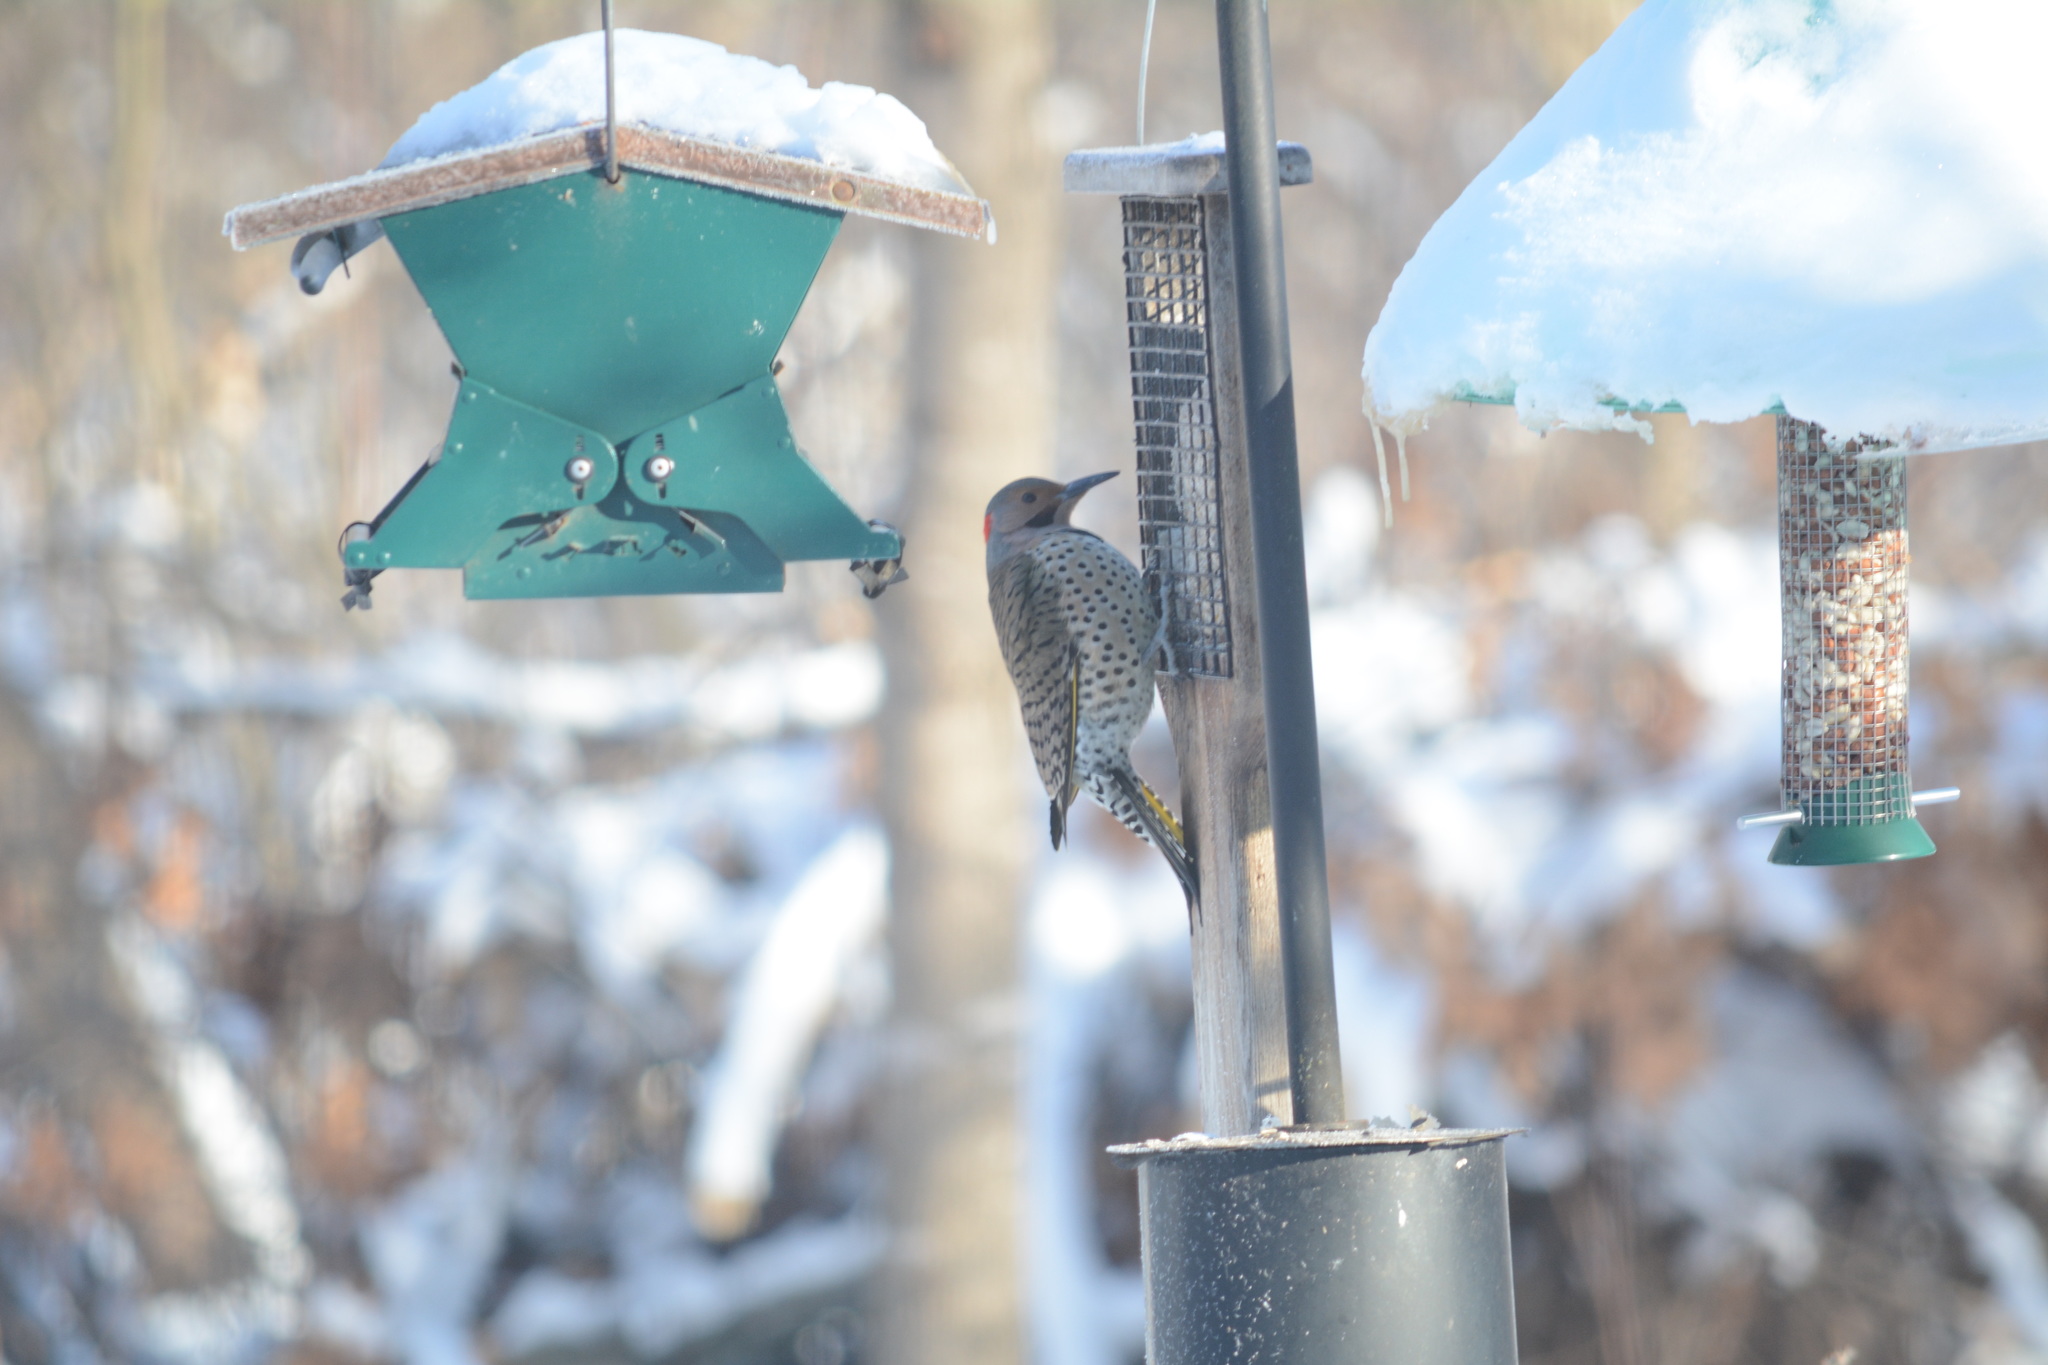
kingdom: Animalia
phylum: Chordata
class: Aves
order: Piciformes
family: Picidae
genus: Colaptes
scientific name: Colaptes auratus
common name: Northern flicker
